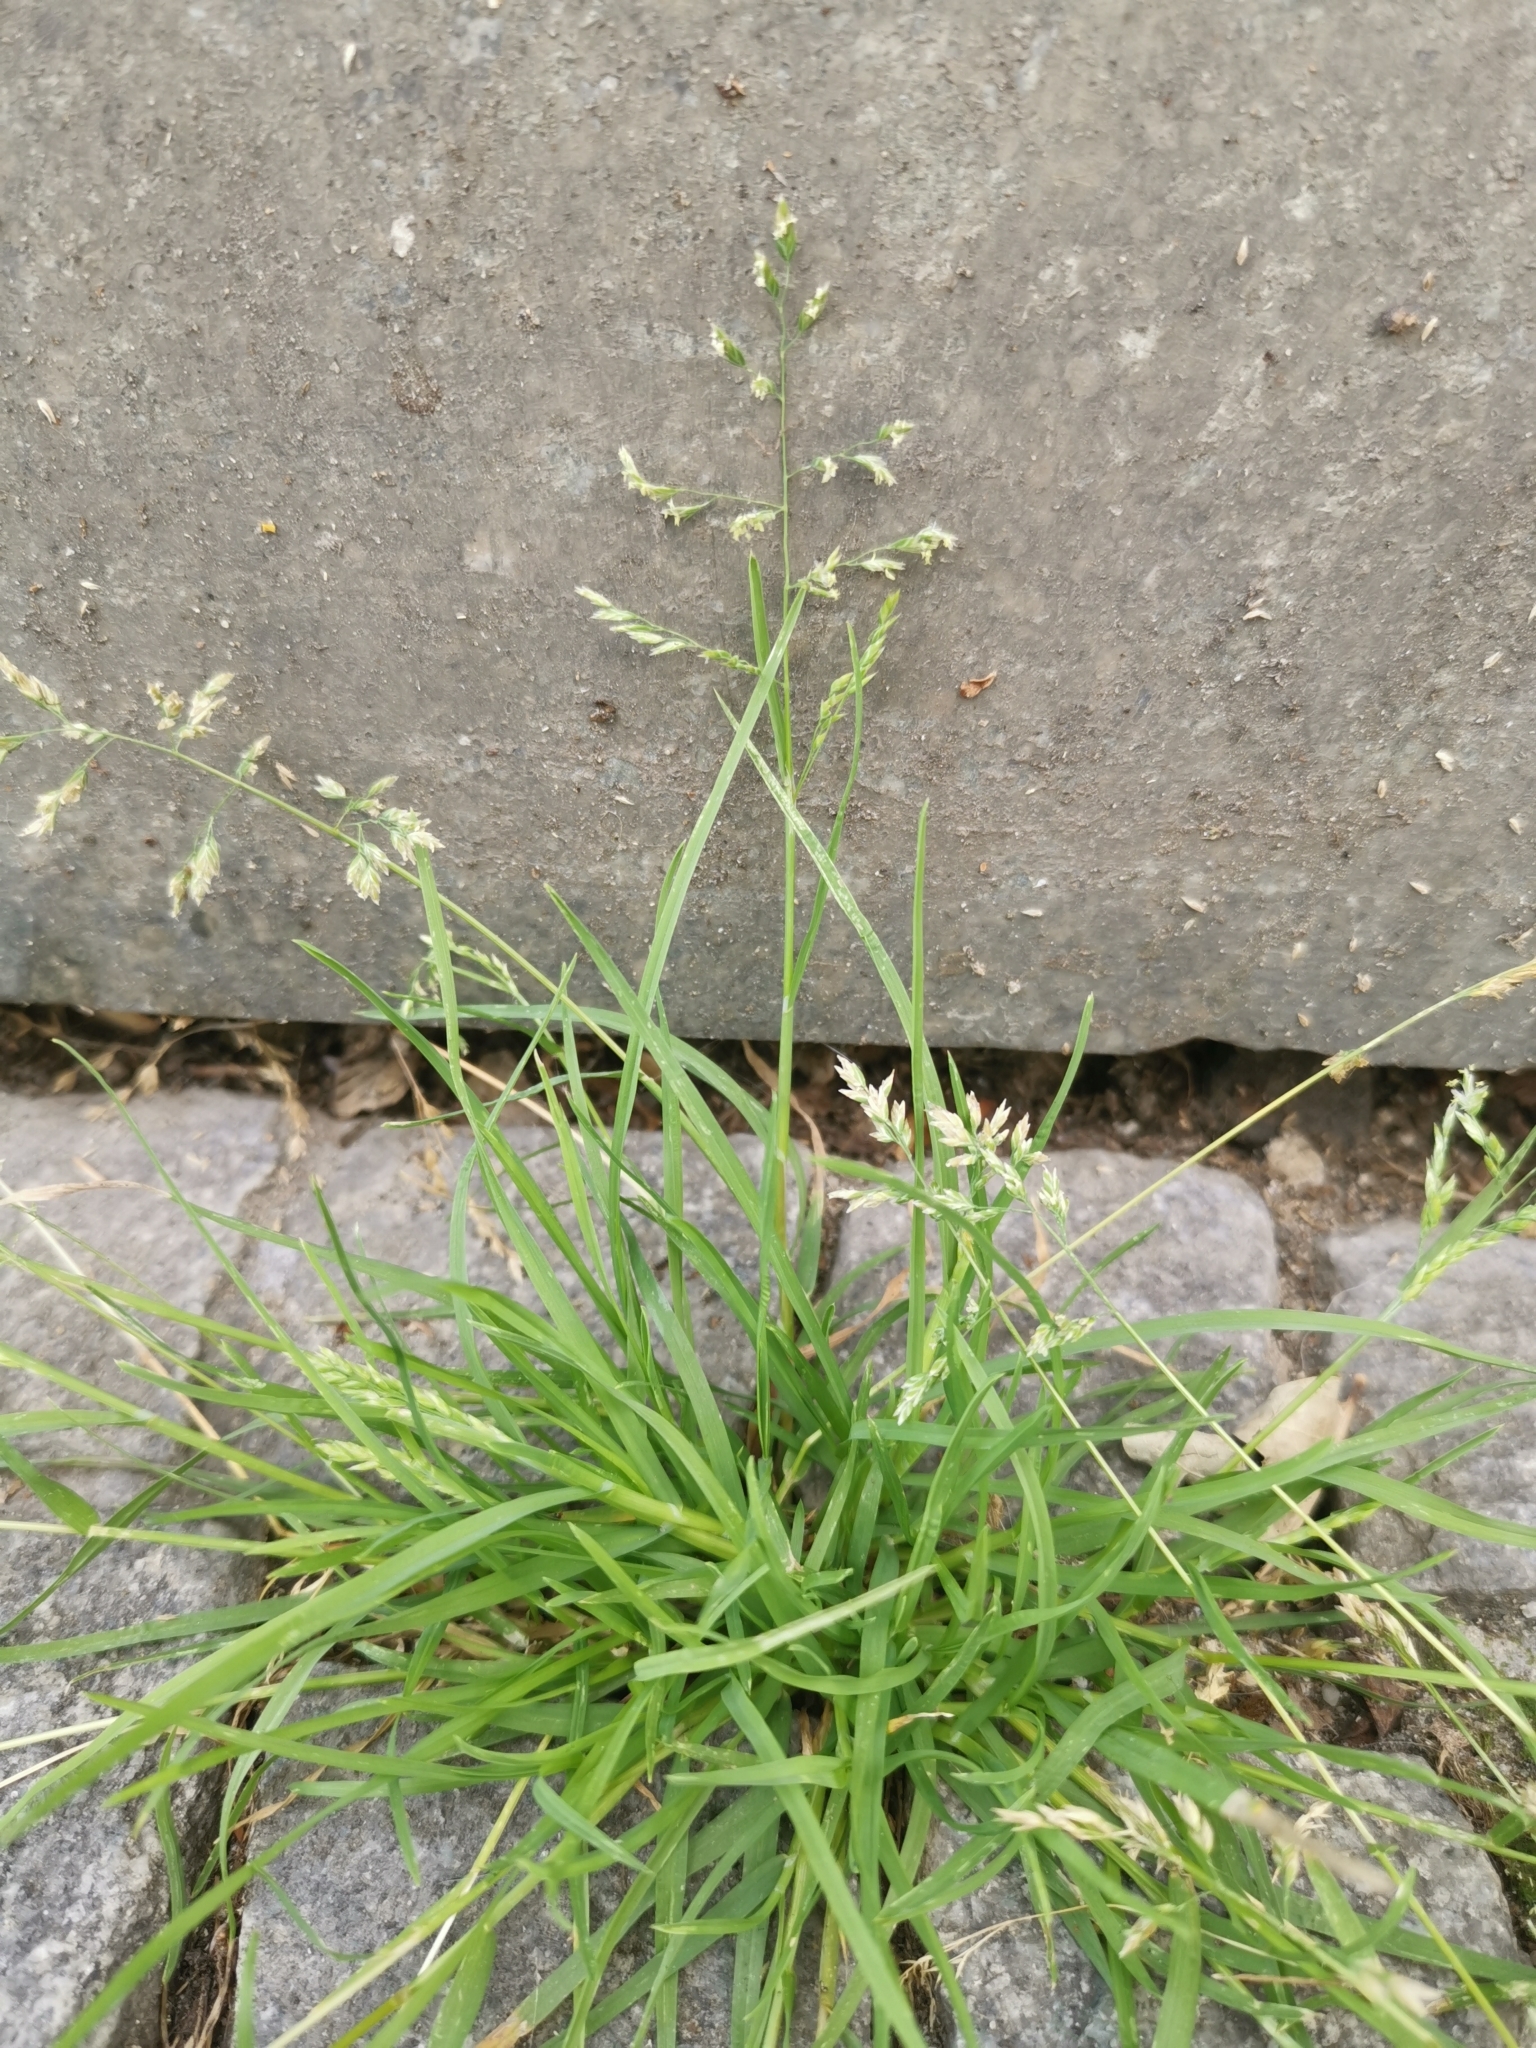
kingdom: Plantae
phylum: Tracheophyta
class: Liliopsida
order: Poales
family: Poaceae
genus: Poa
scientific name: Poa annua
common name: Annual bluegrass
